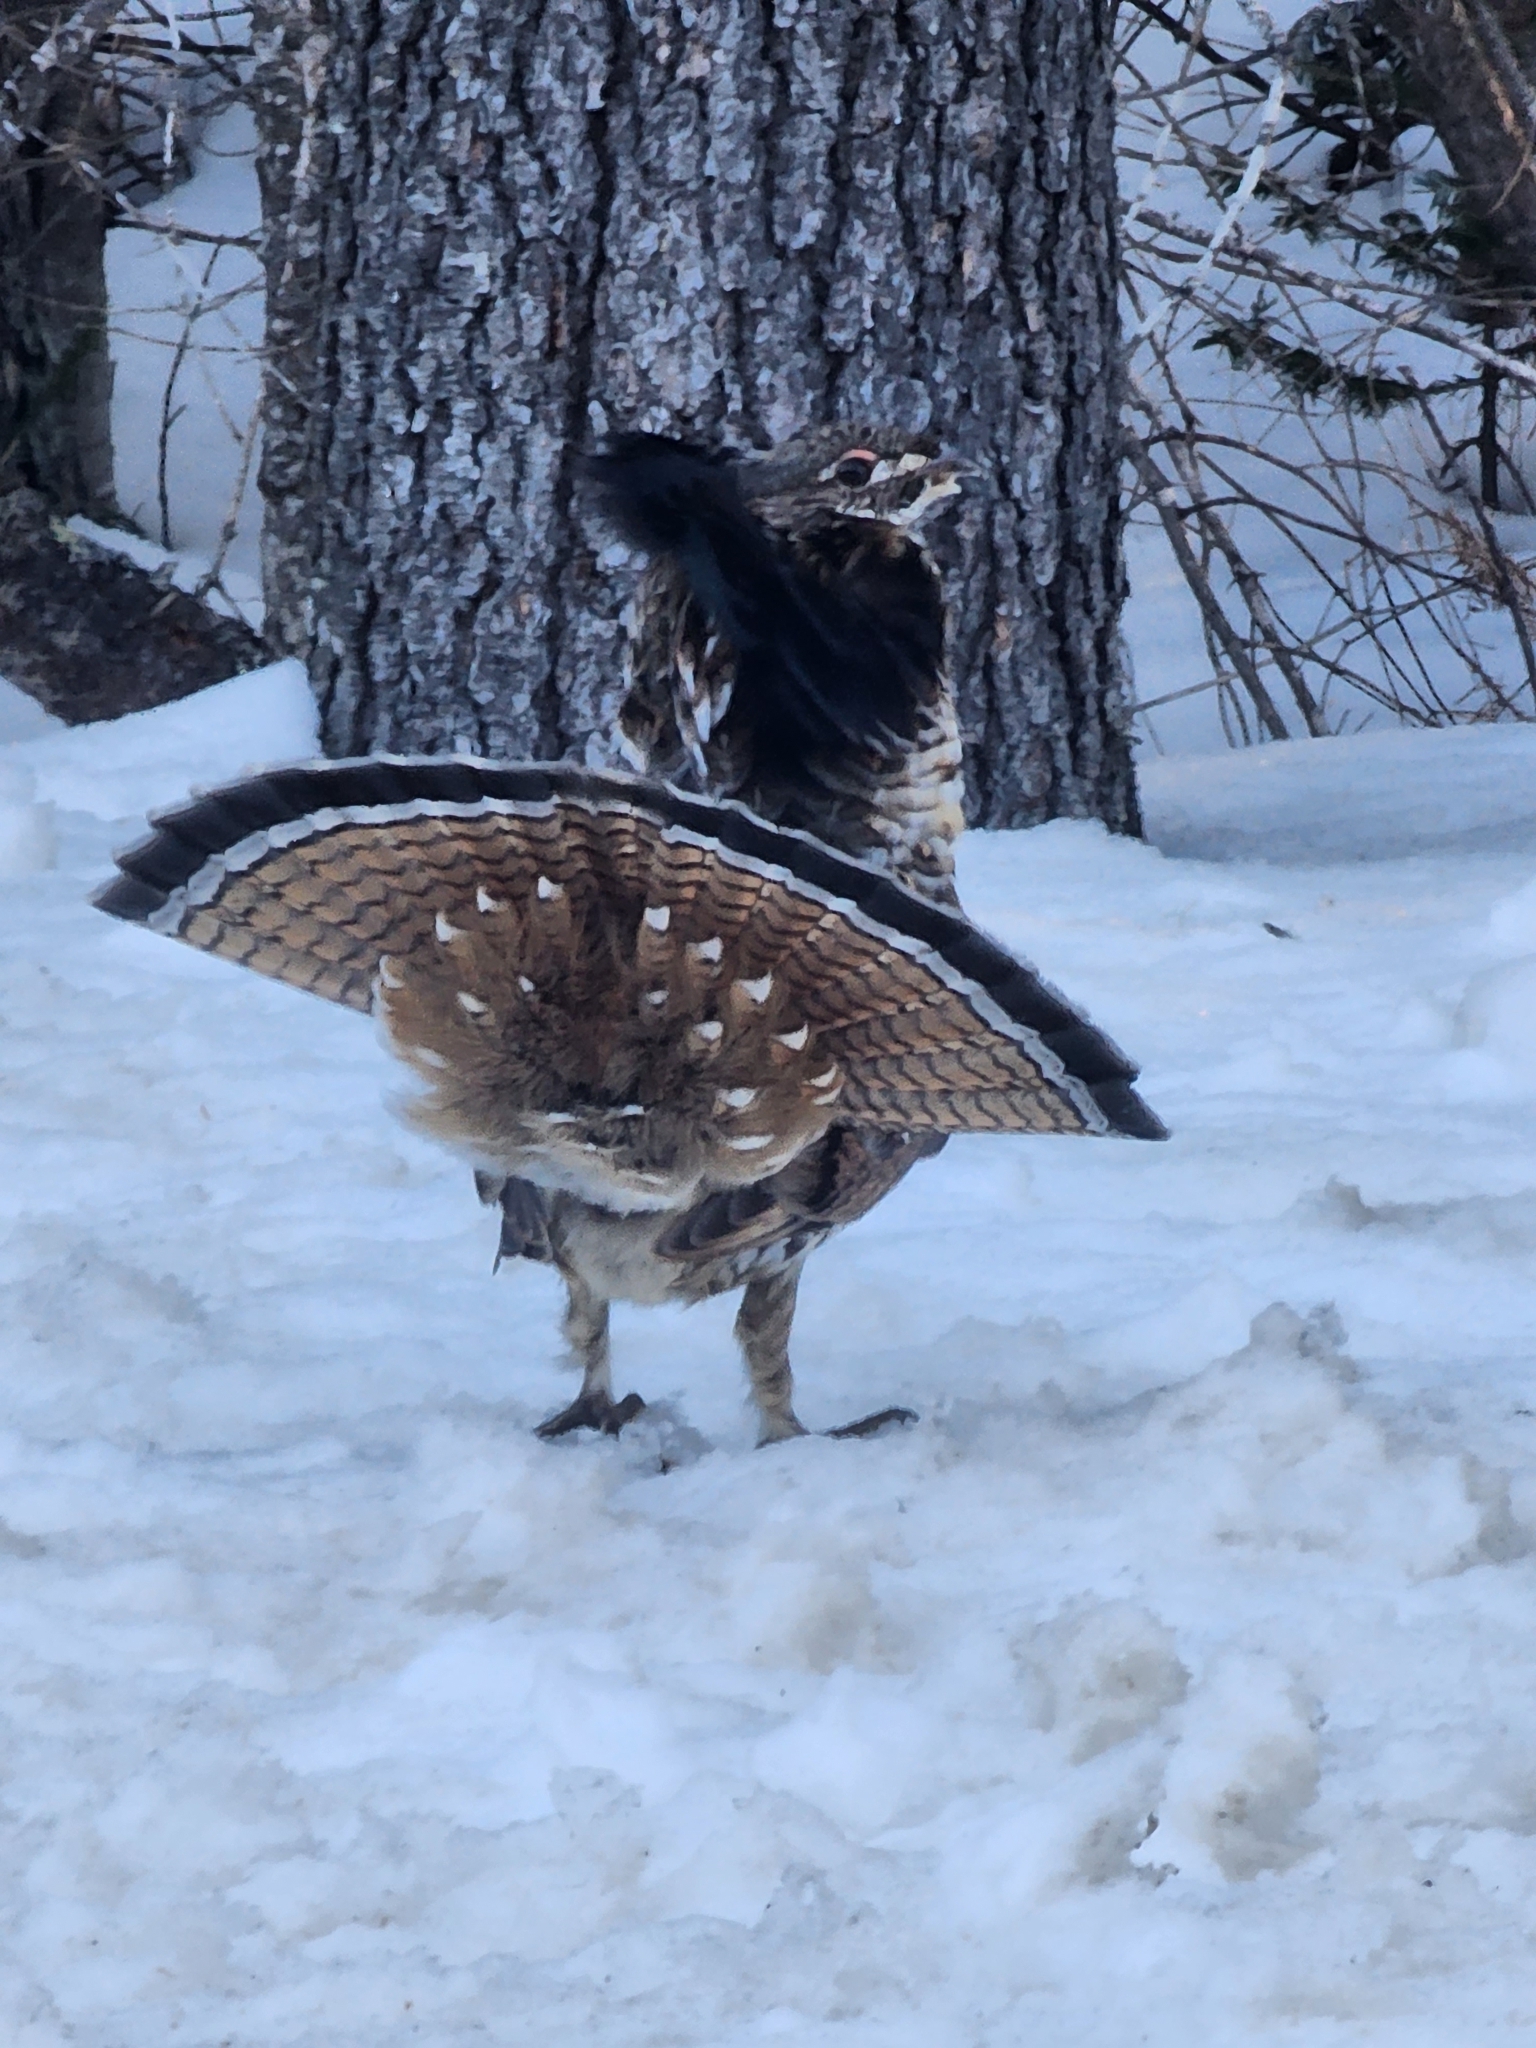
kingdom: Animalia
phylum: Chordata
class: Aves
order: Galliformes
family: Phasianidae
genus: Bonasa
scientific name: Bonasa umbellus
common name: Ruffed grouse
